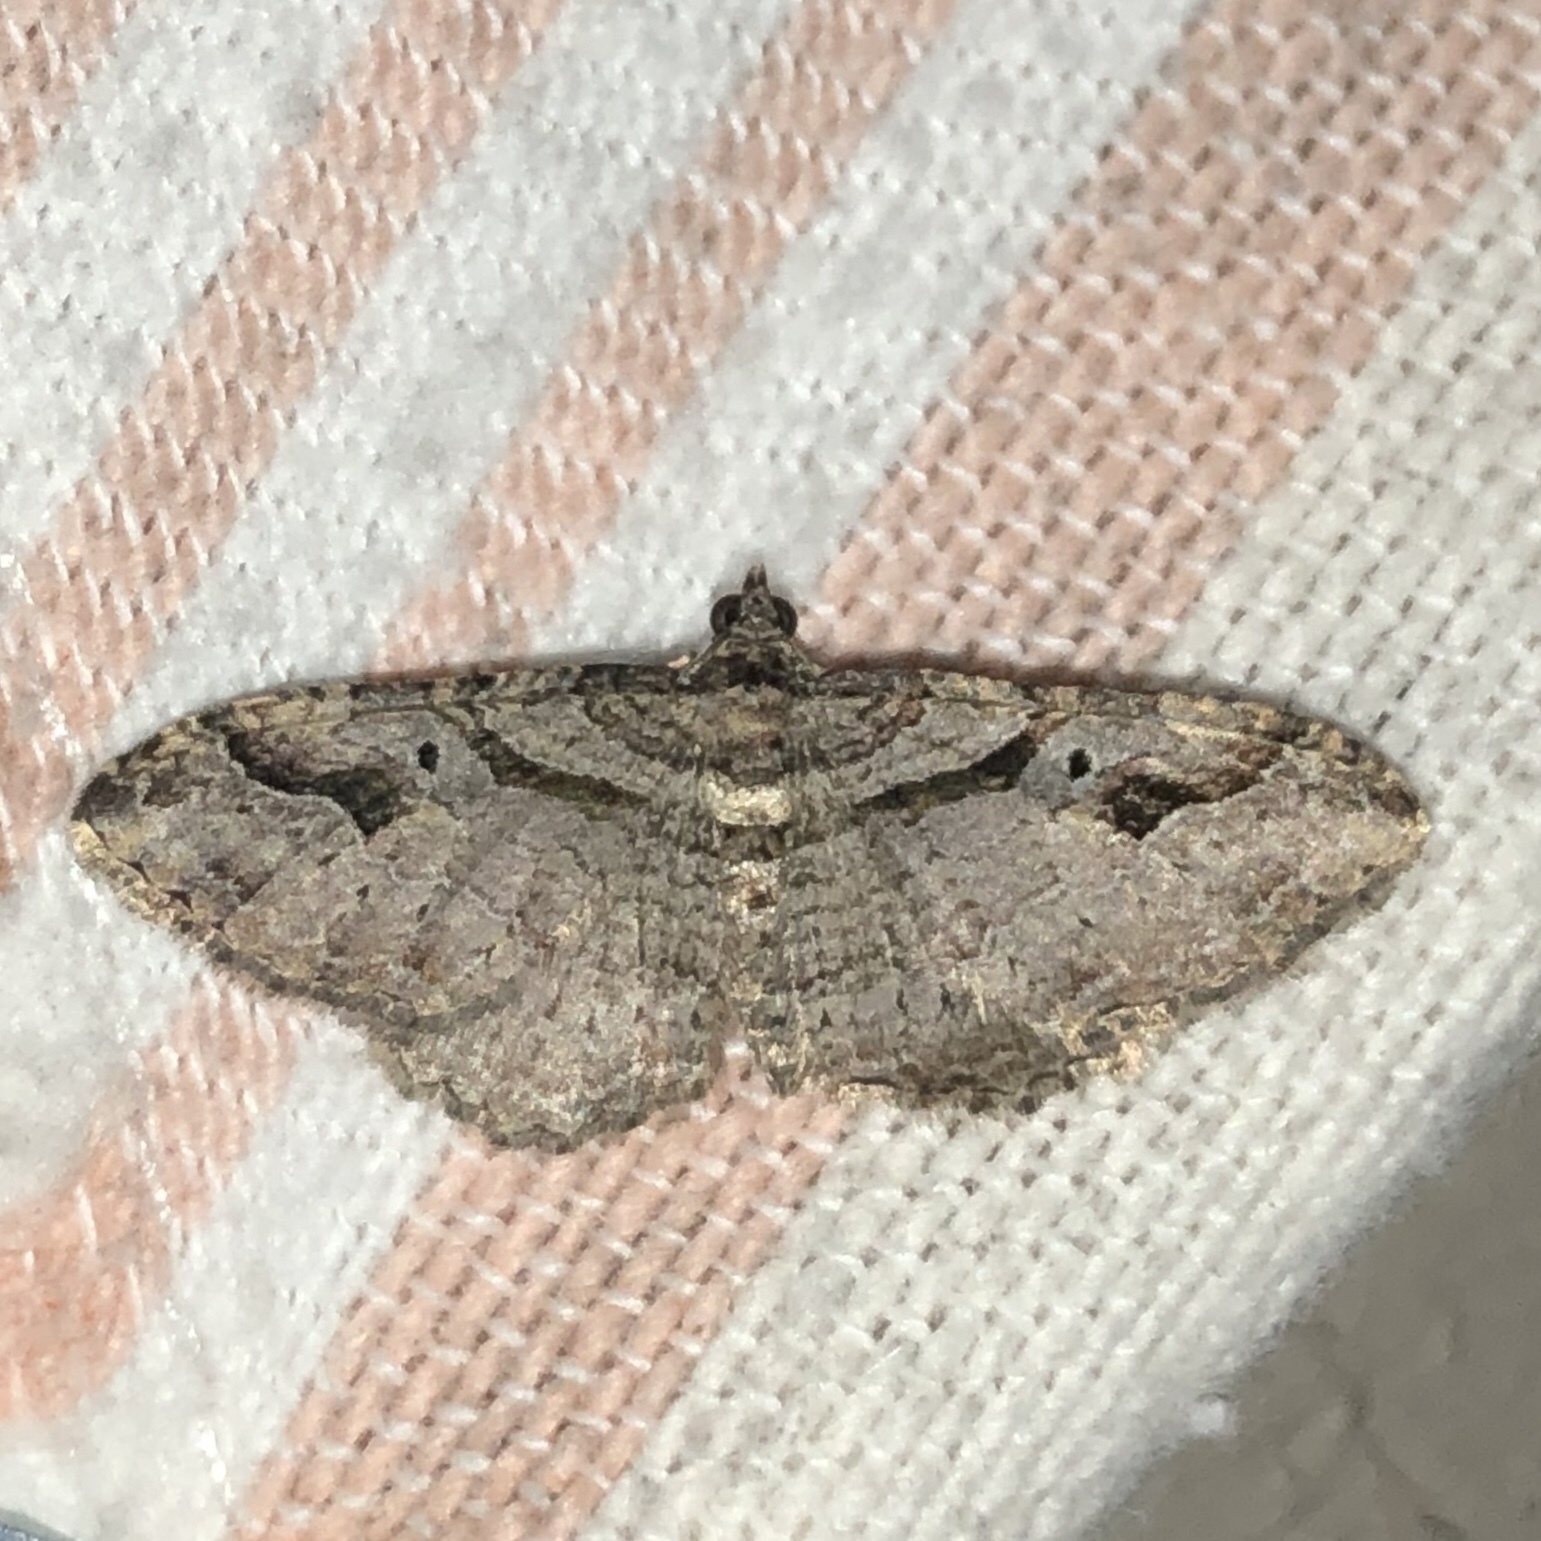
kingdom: Animalia
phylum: Arthropoda
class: Insecta
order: Lepidoptera
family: Geometridae
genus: Costaconvexa
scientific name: Costaconvexa centrostrigaria
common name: Bent-line carpet
